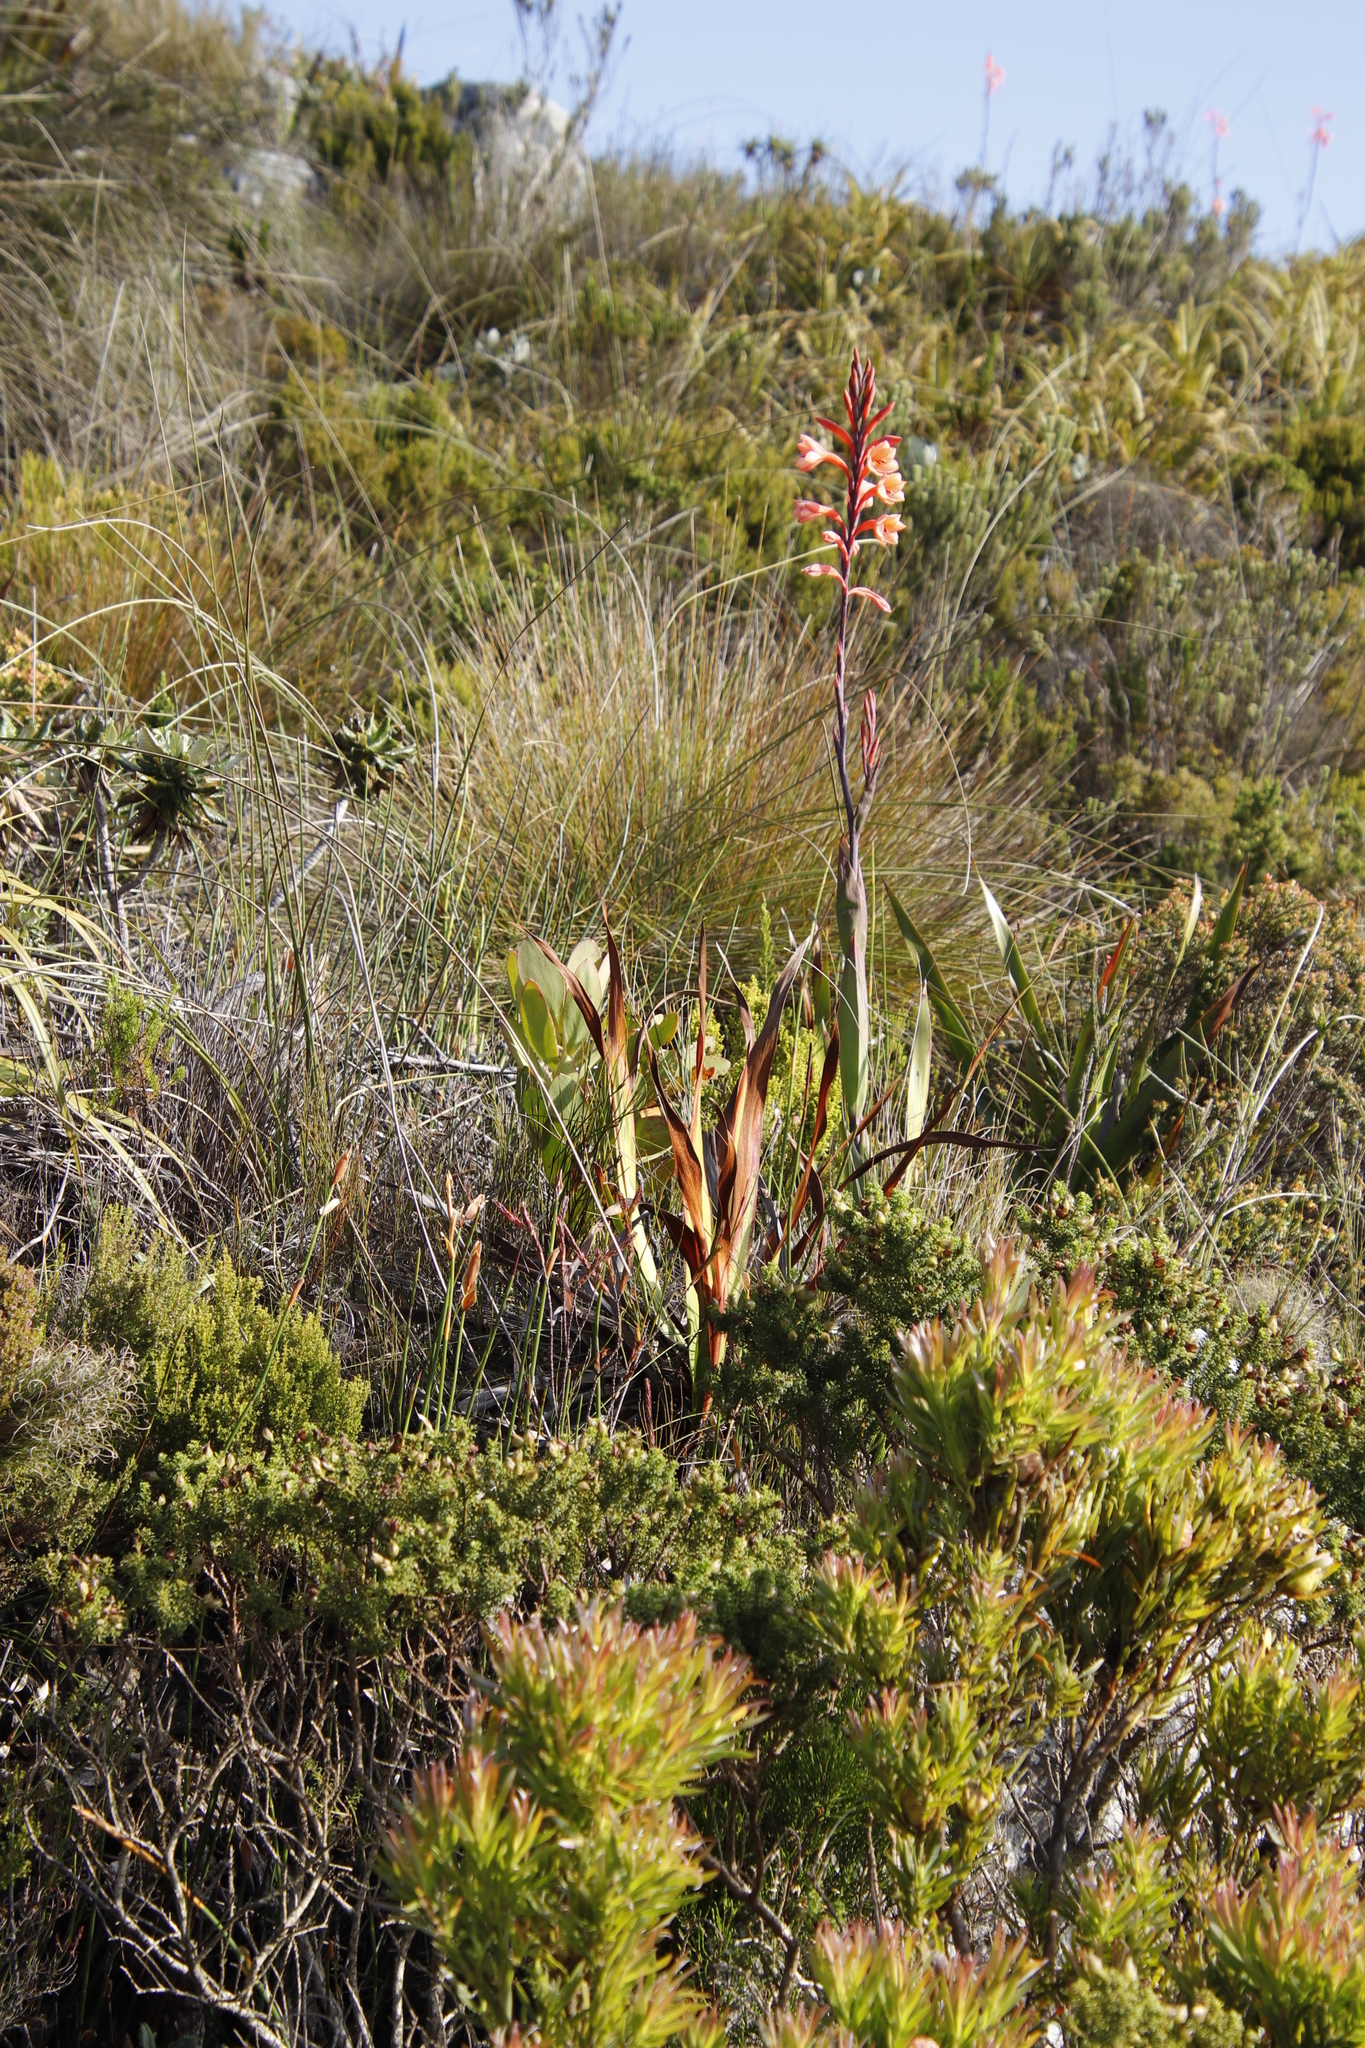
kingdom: Plantae
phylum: Tracheophyta
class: Liliopsida
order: Asparagales
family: Iridaceae
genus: Watsonia
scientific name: Watsonia tabularis
